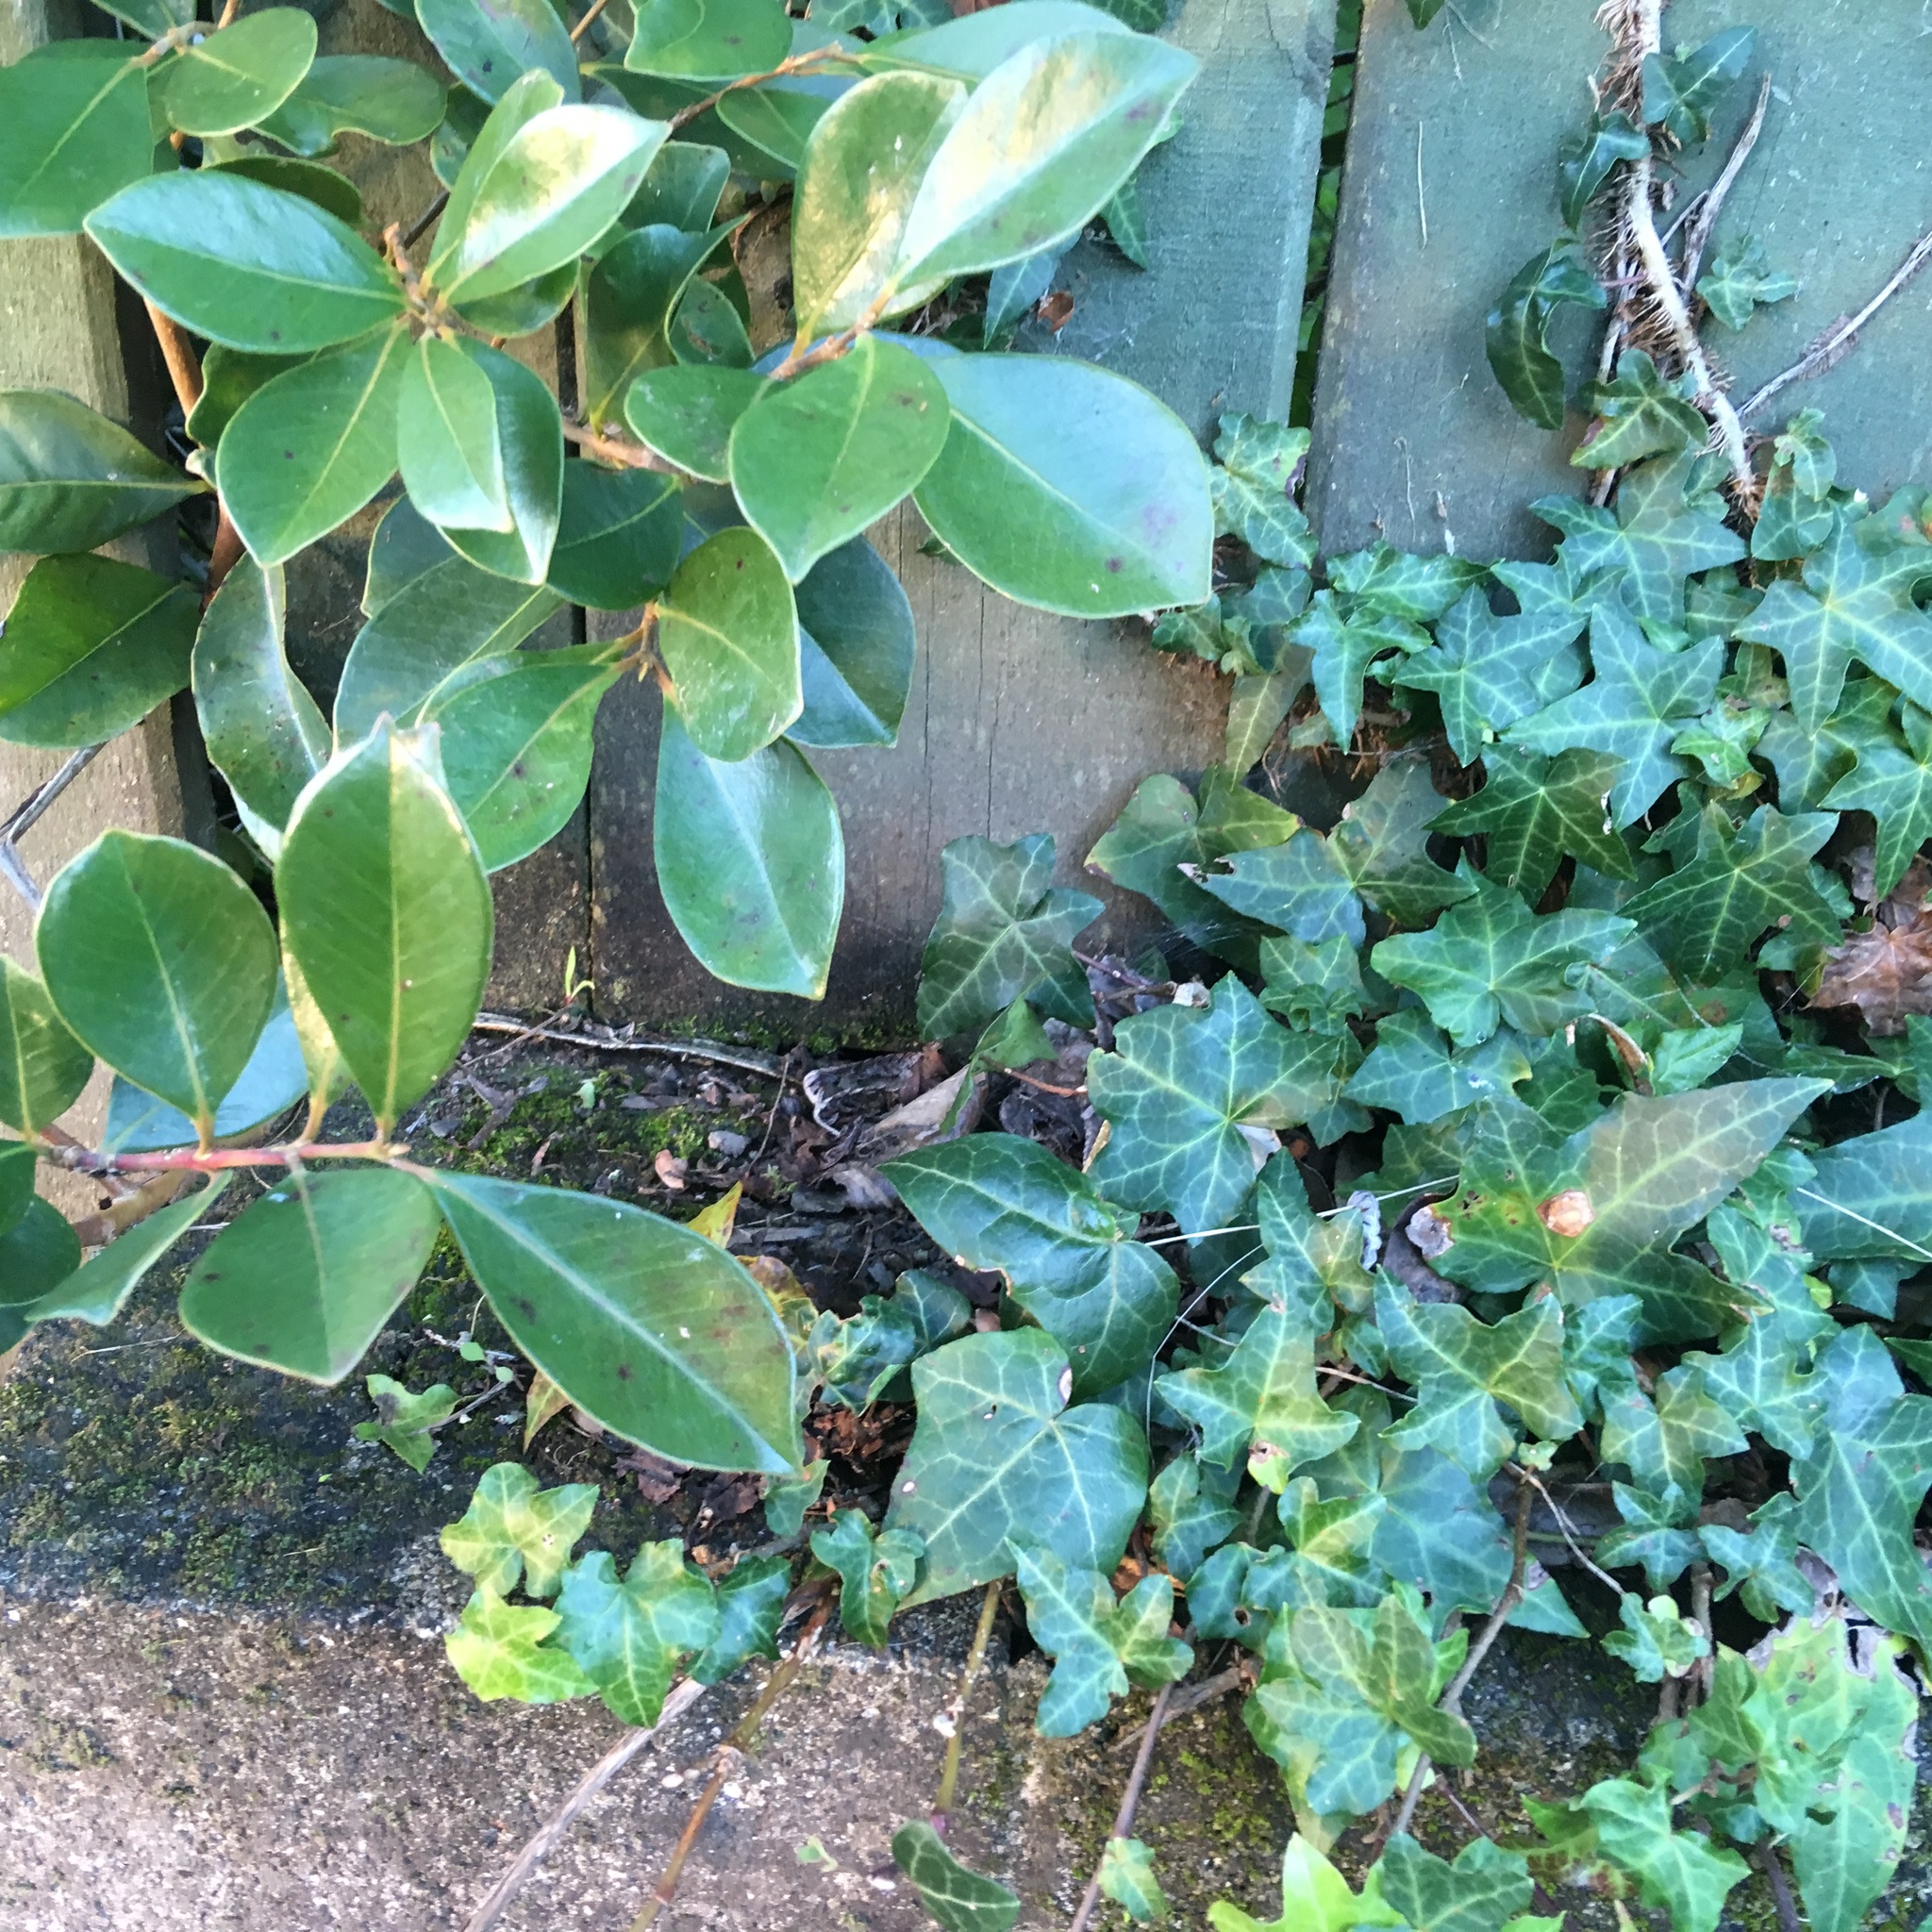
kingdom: Plantae
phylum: Tracheophyta
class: Magnoliopsida
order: Apiales
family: Araliaceae
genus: Hedera
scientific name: Hedera helix
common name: Ivy
